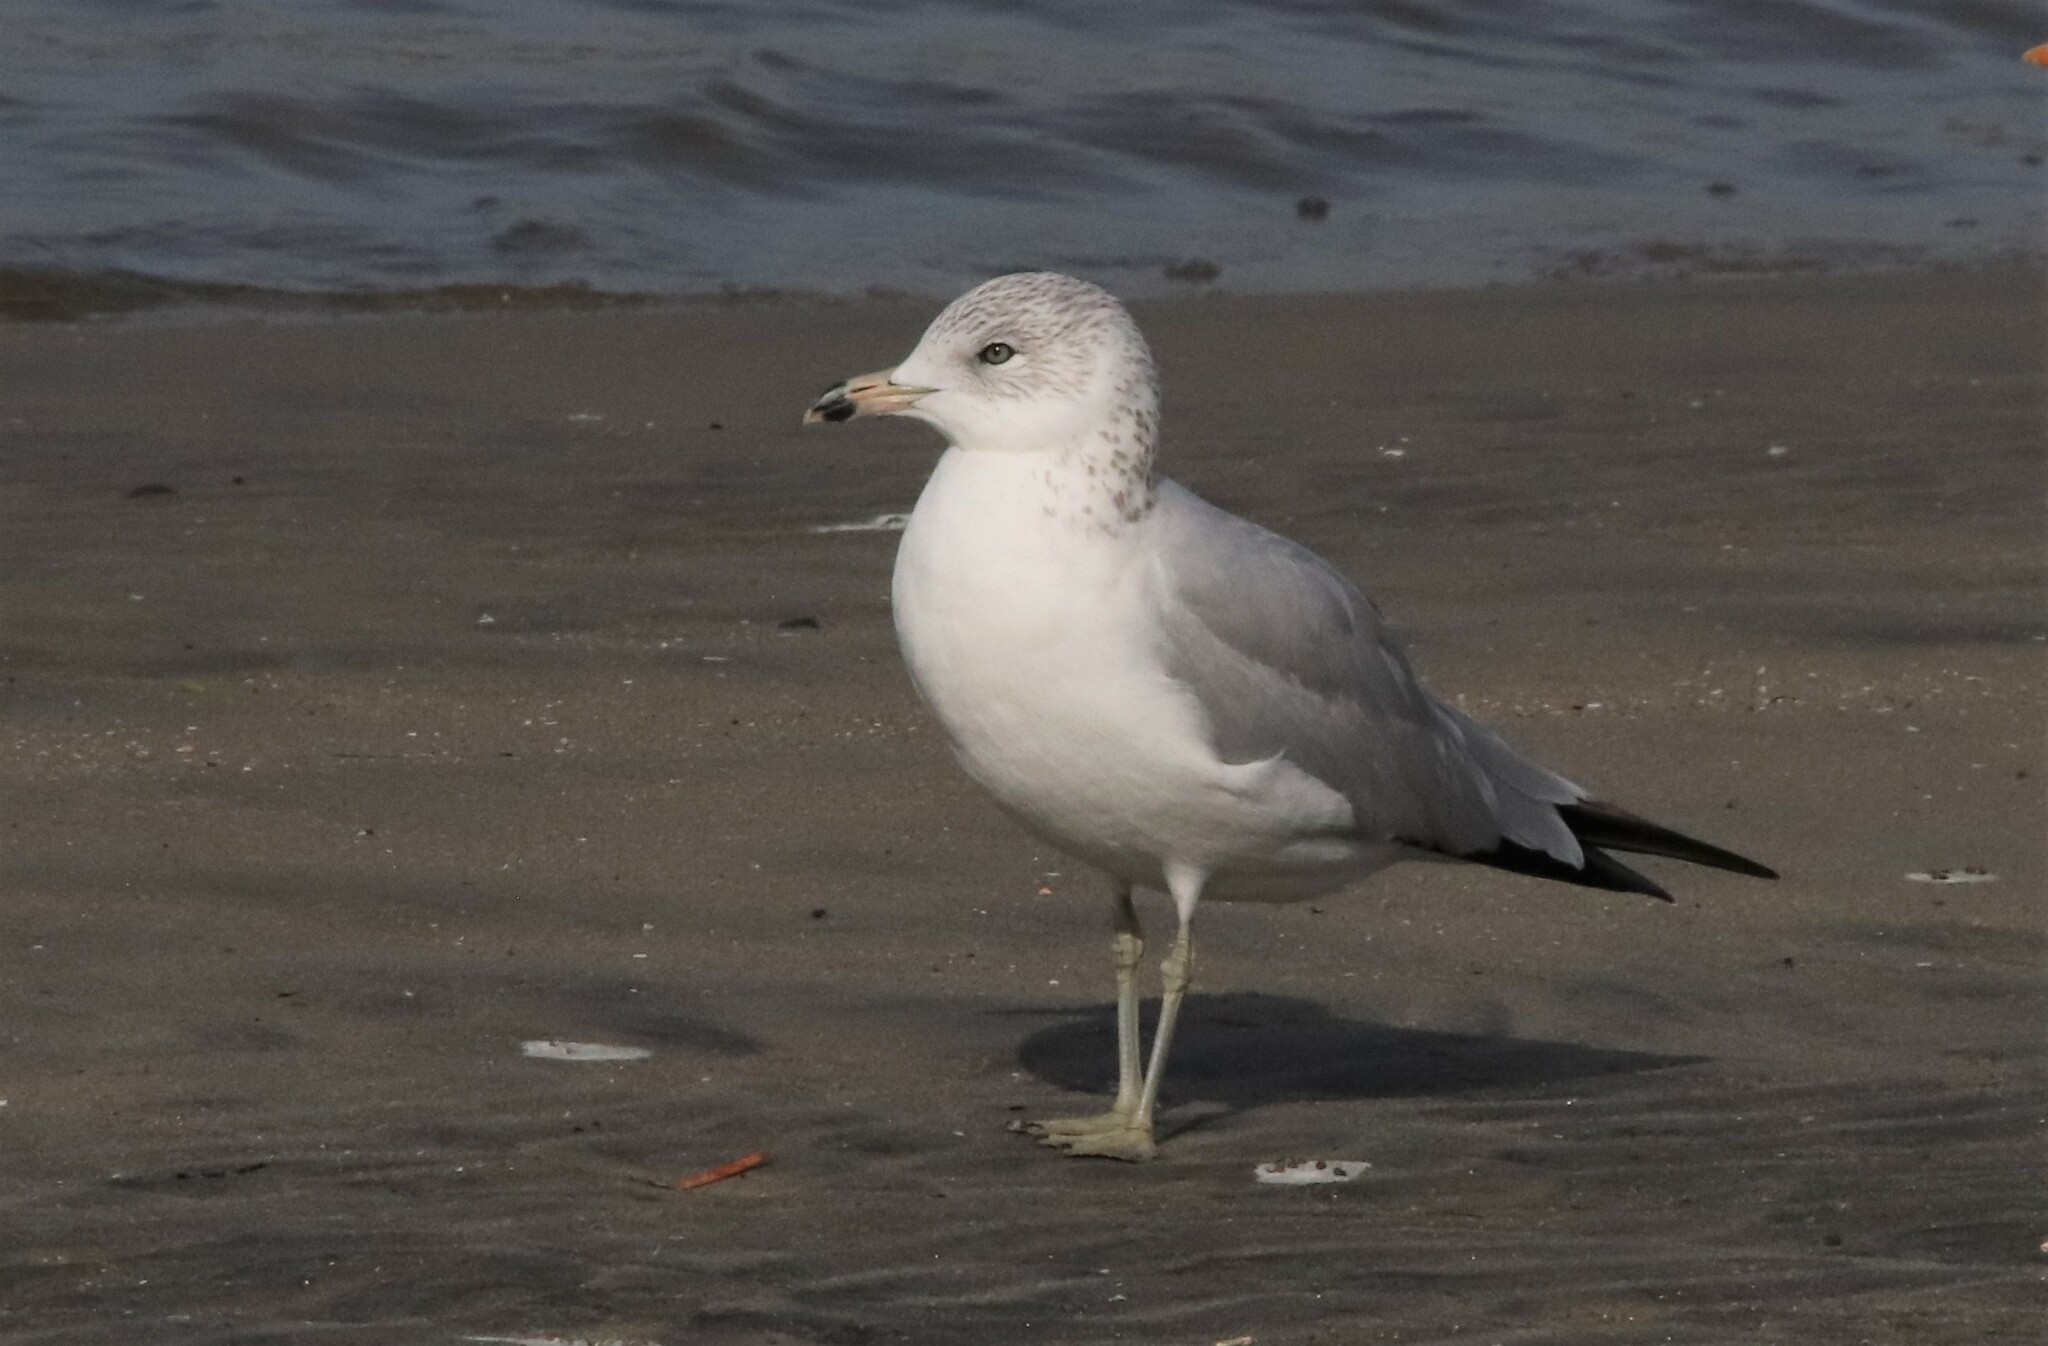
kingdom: Animalia
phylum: Chordata
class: Aves
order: Charadriiformes
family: Laridae
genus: Larus
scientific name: Larus delawarensis
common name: Ring-billed gull
